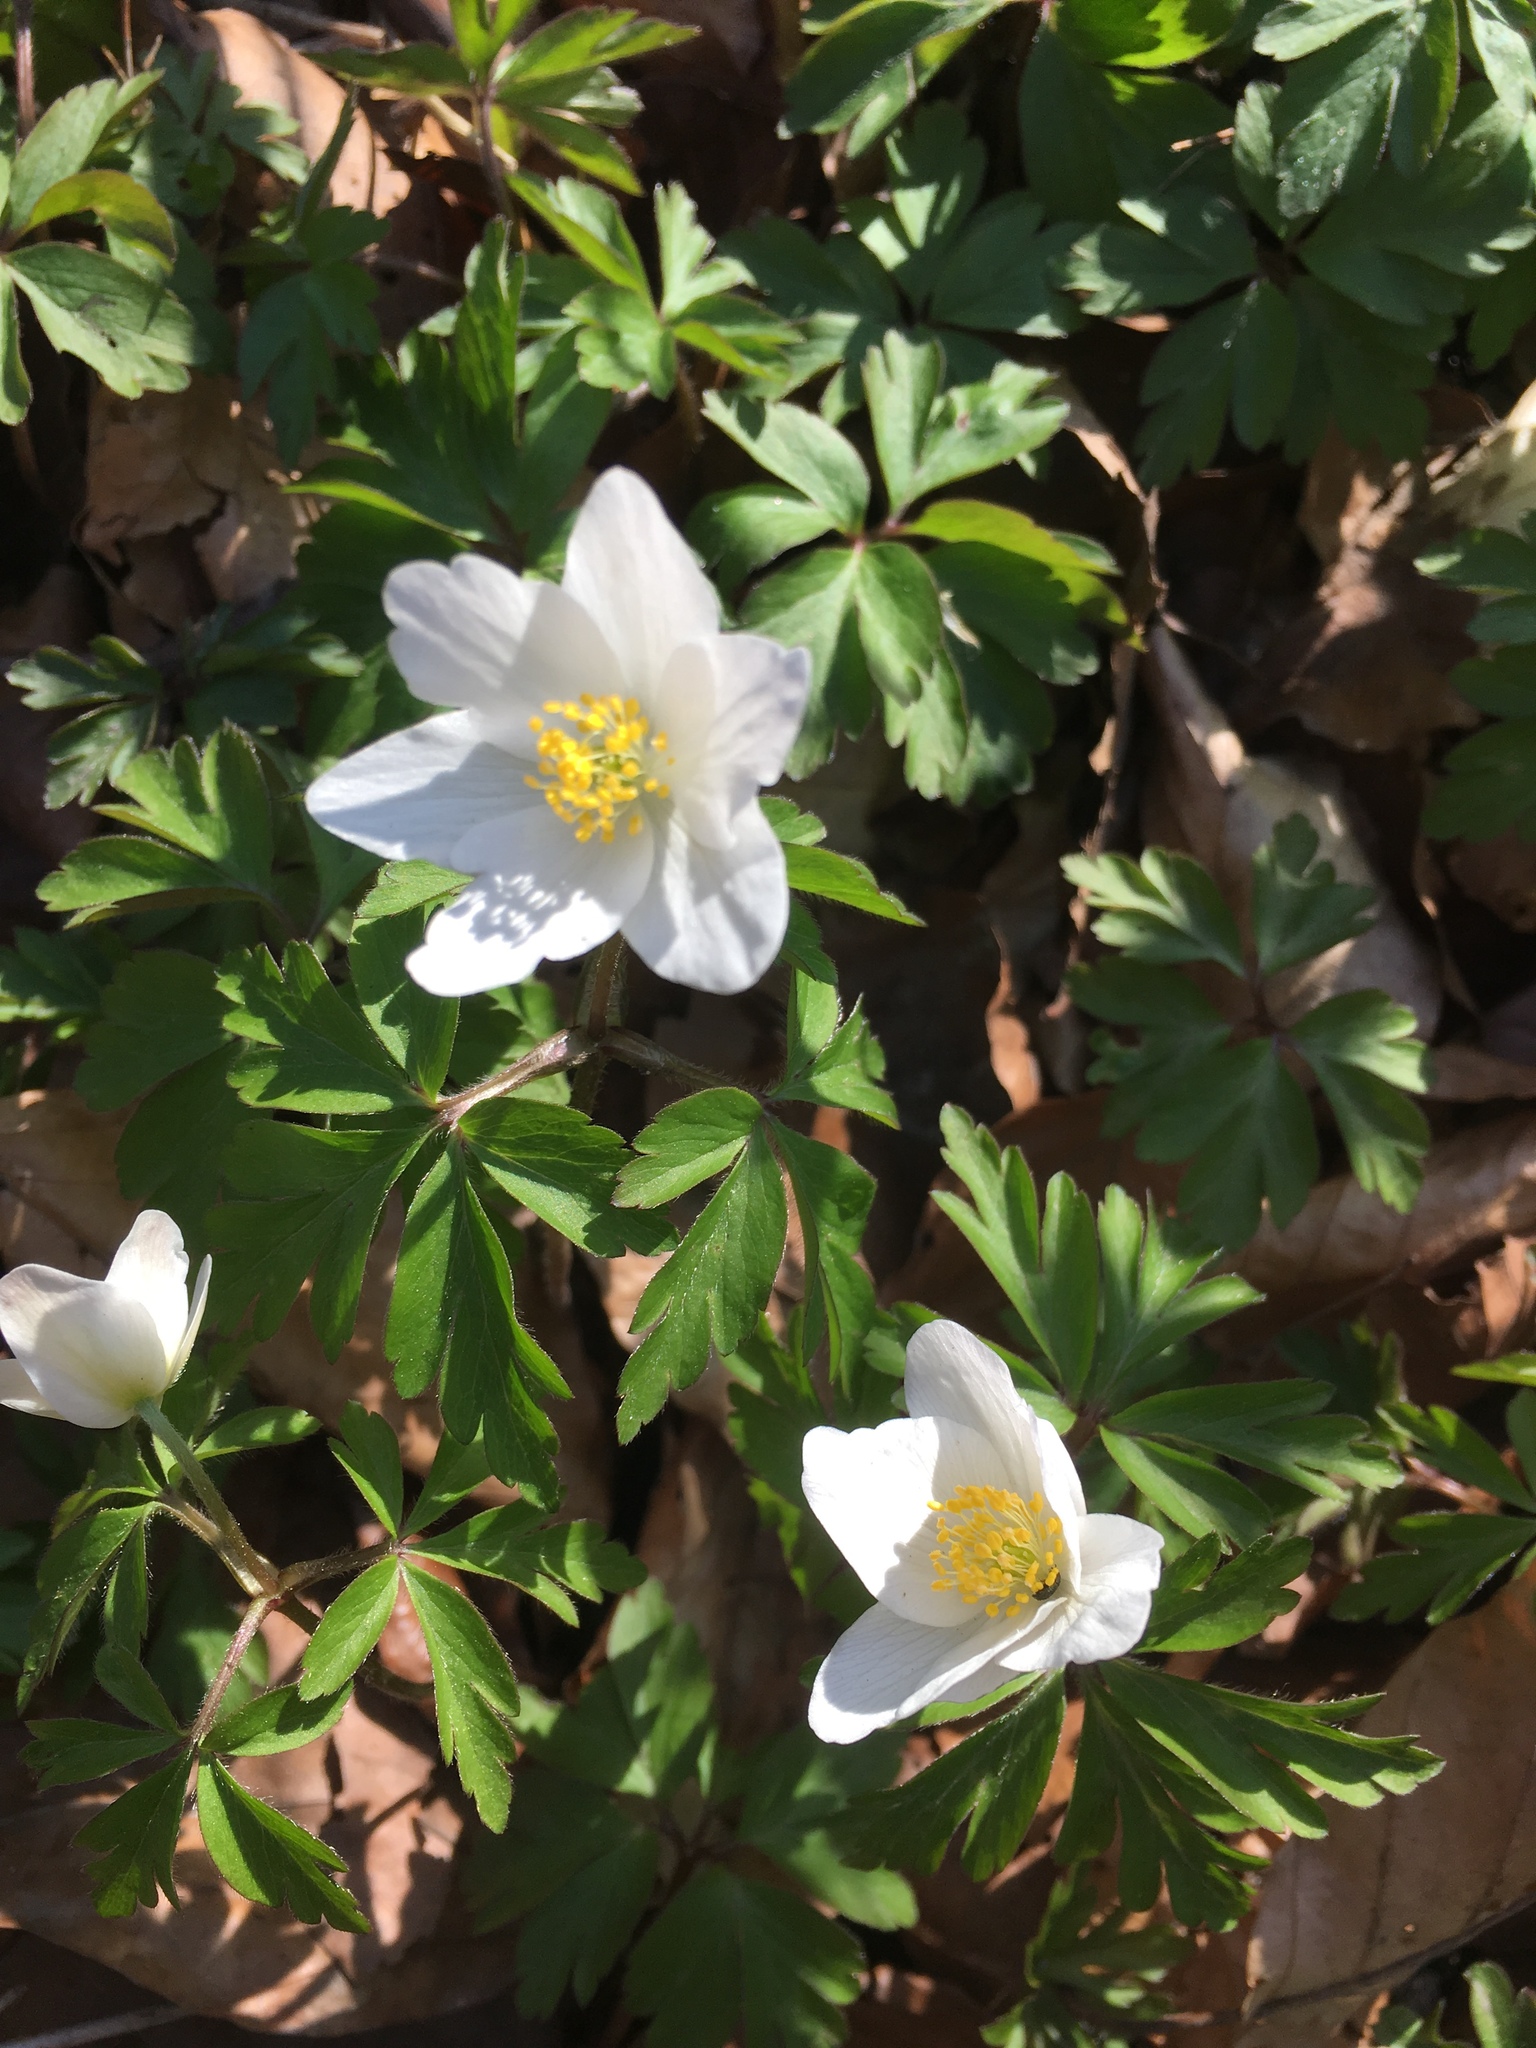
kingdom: Plantae
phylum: Tracheophyta
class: Magnoliopsida
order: Ranunculales
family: Ranunculaceae
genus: Anemone
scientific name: Anemone nemorosa
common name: Wood anemone
